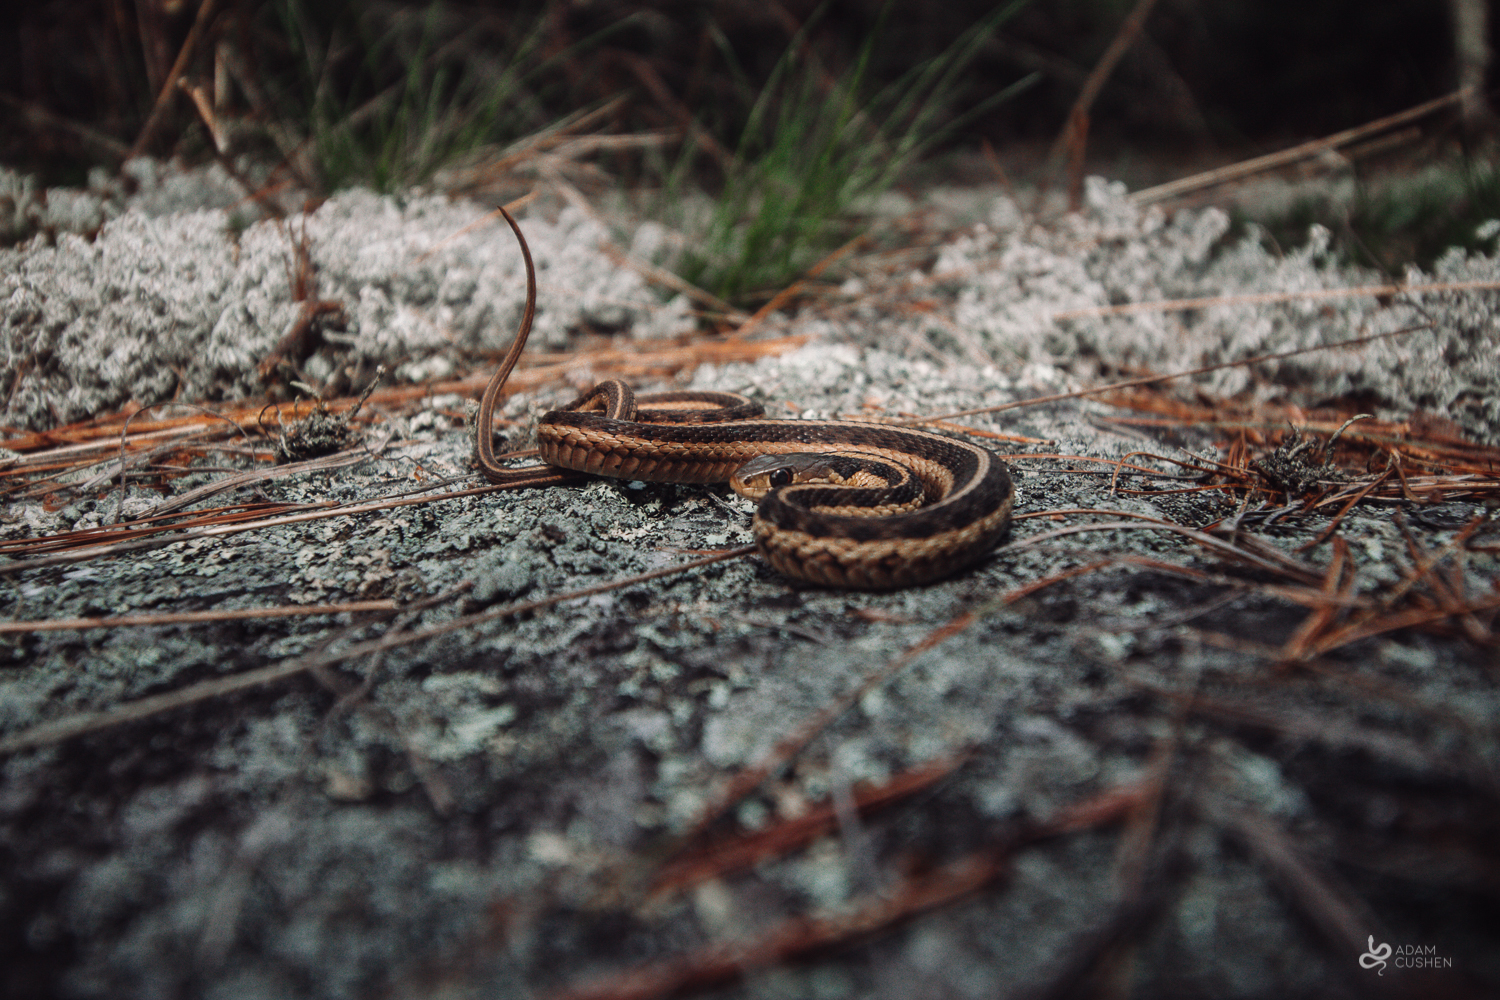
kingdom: Animalia
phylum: Chordata
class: Squamata
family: Colubridae
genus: Thamnophis
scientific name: Thamnophis sirtalis
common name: Common garter snake
